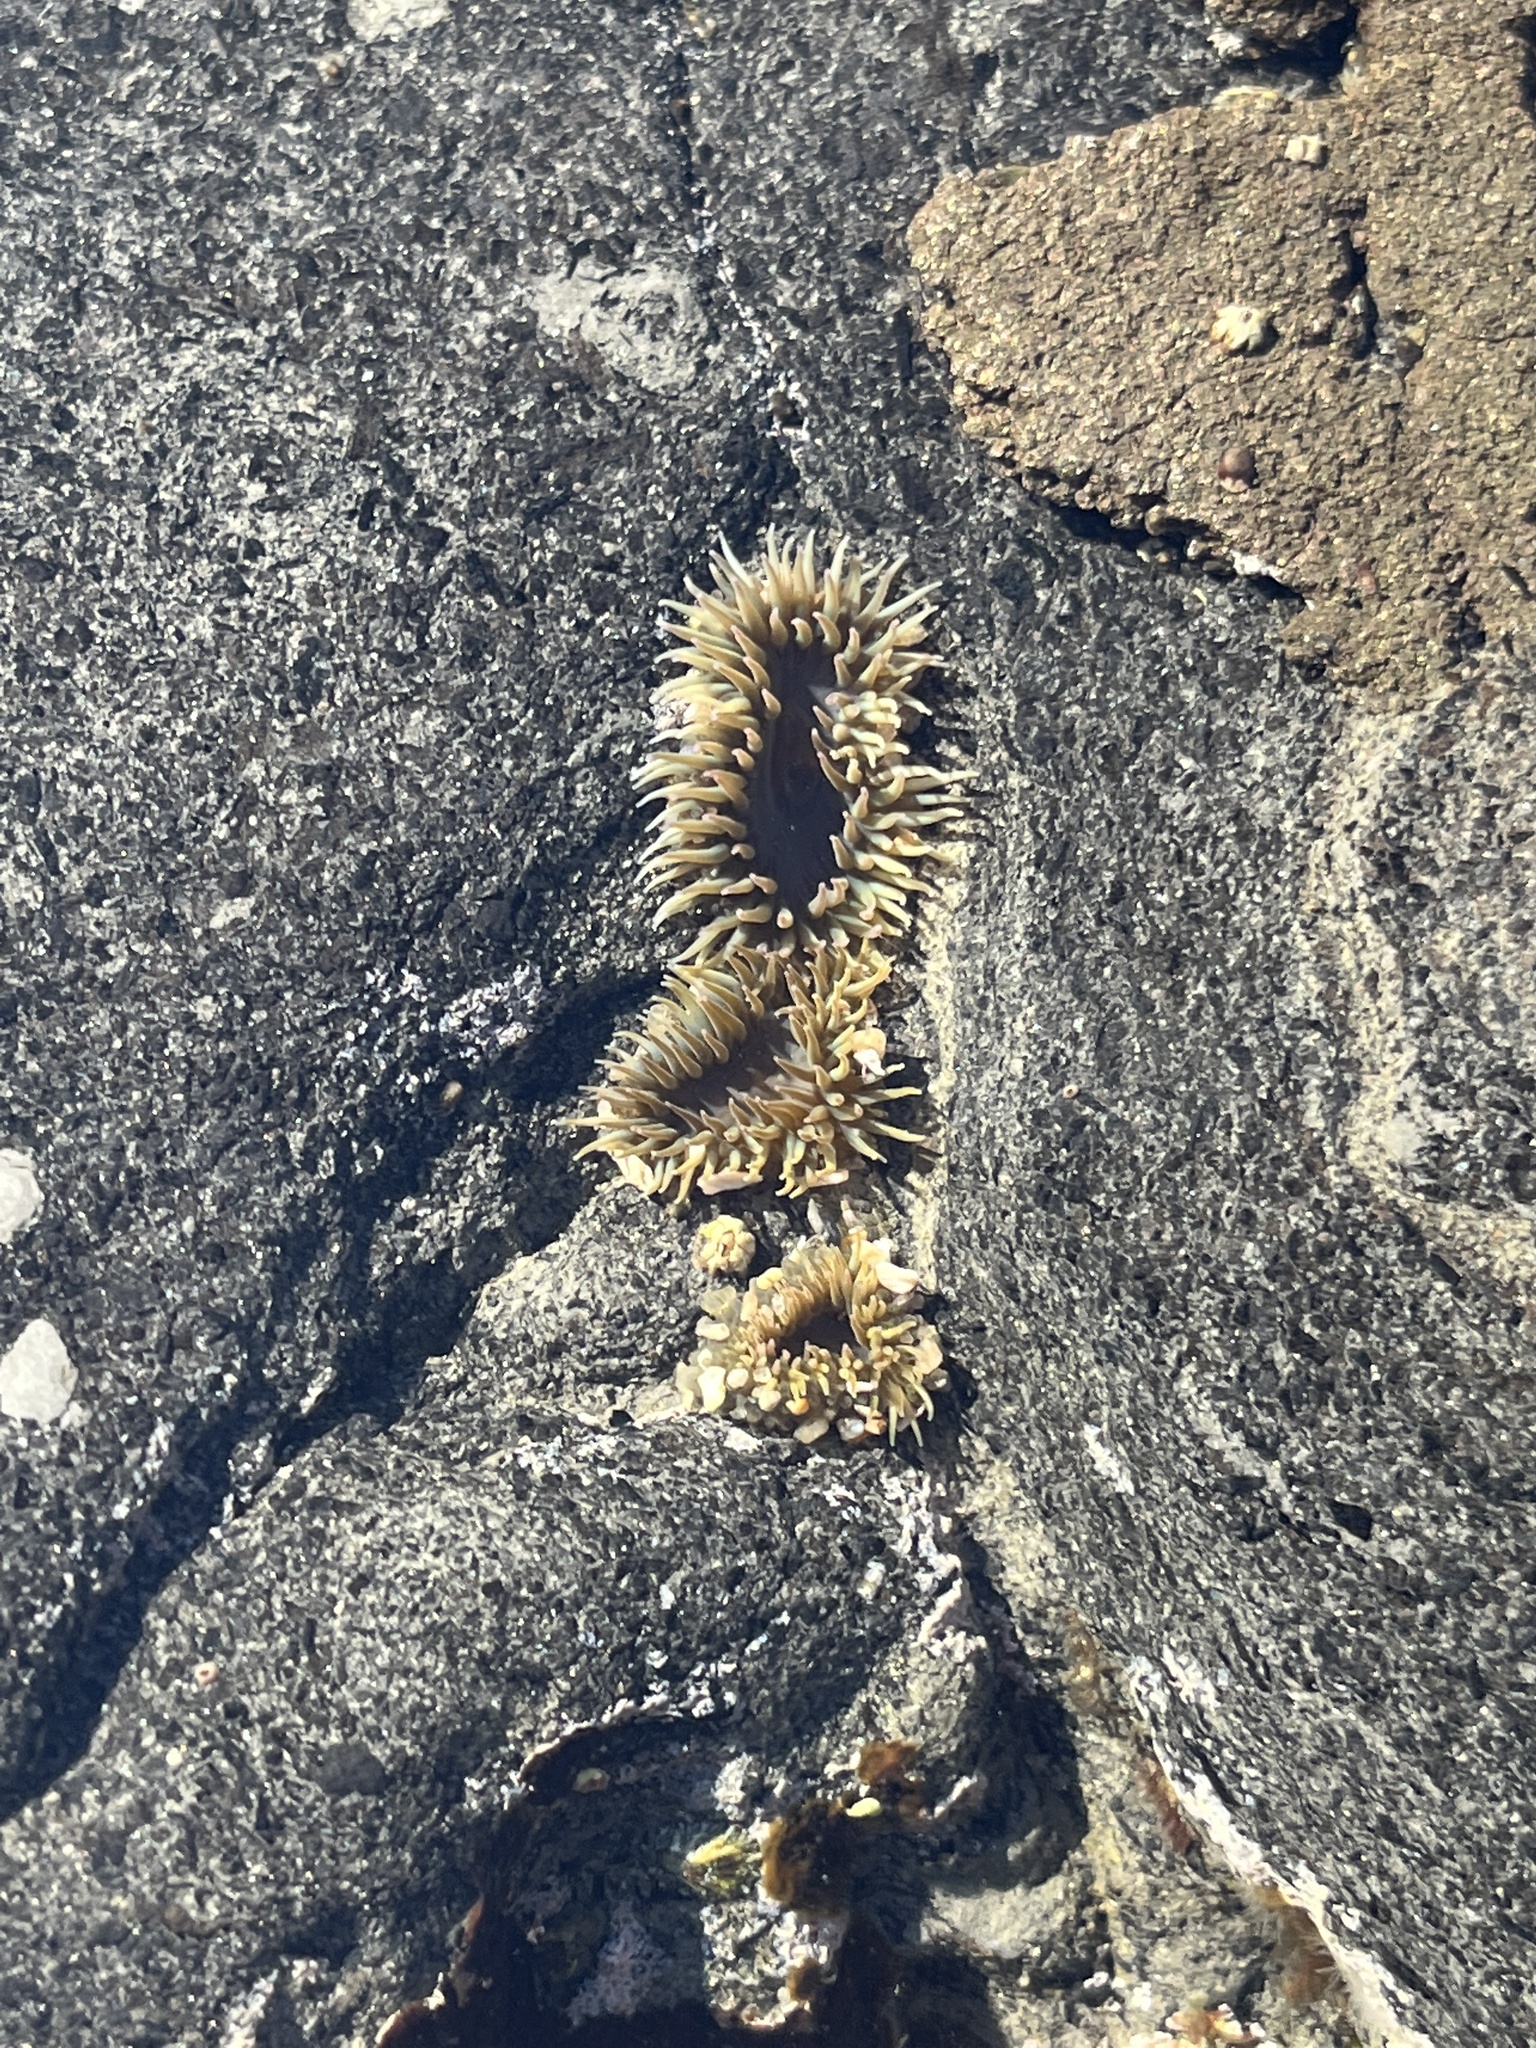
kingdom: Animalia
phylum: Cnidaria
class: Anthozoa
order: Actiniaria
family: Actiniidae
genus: Anthopleura
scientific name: Anthopleura elegantissima
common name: Clonal anemone
